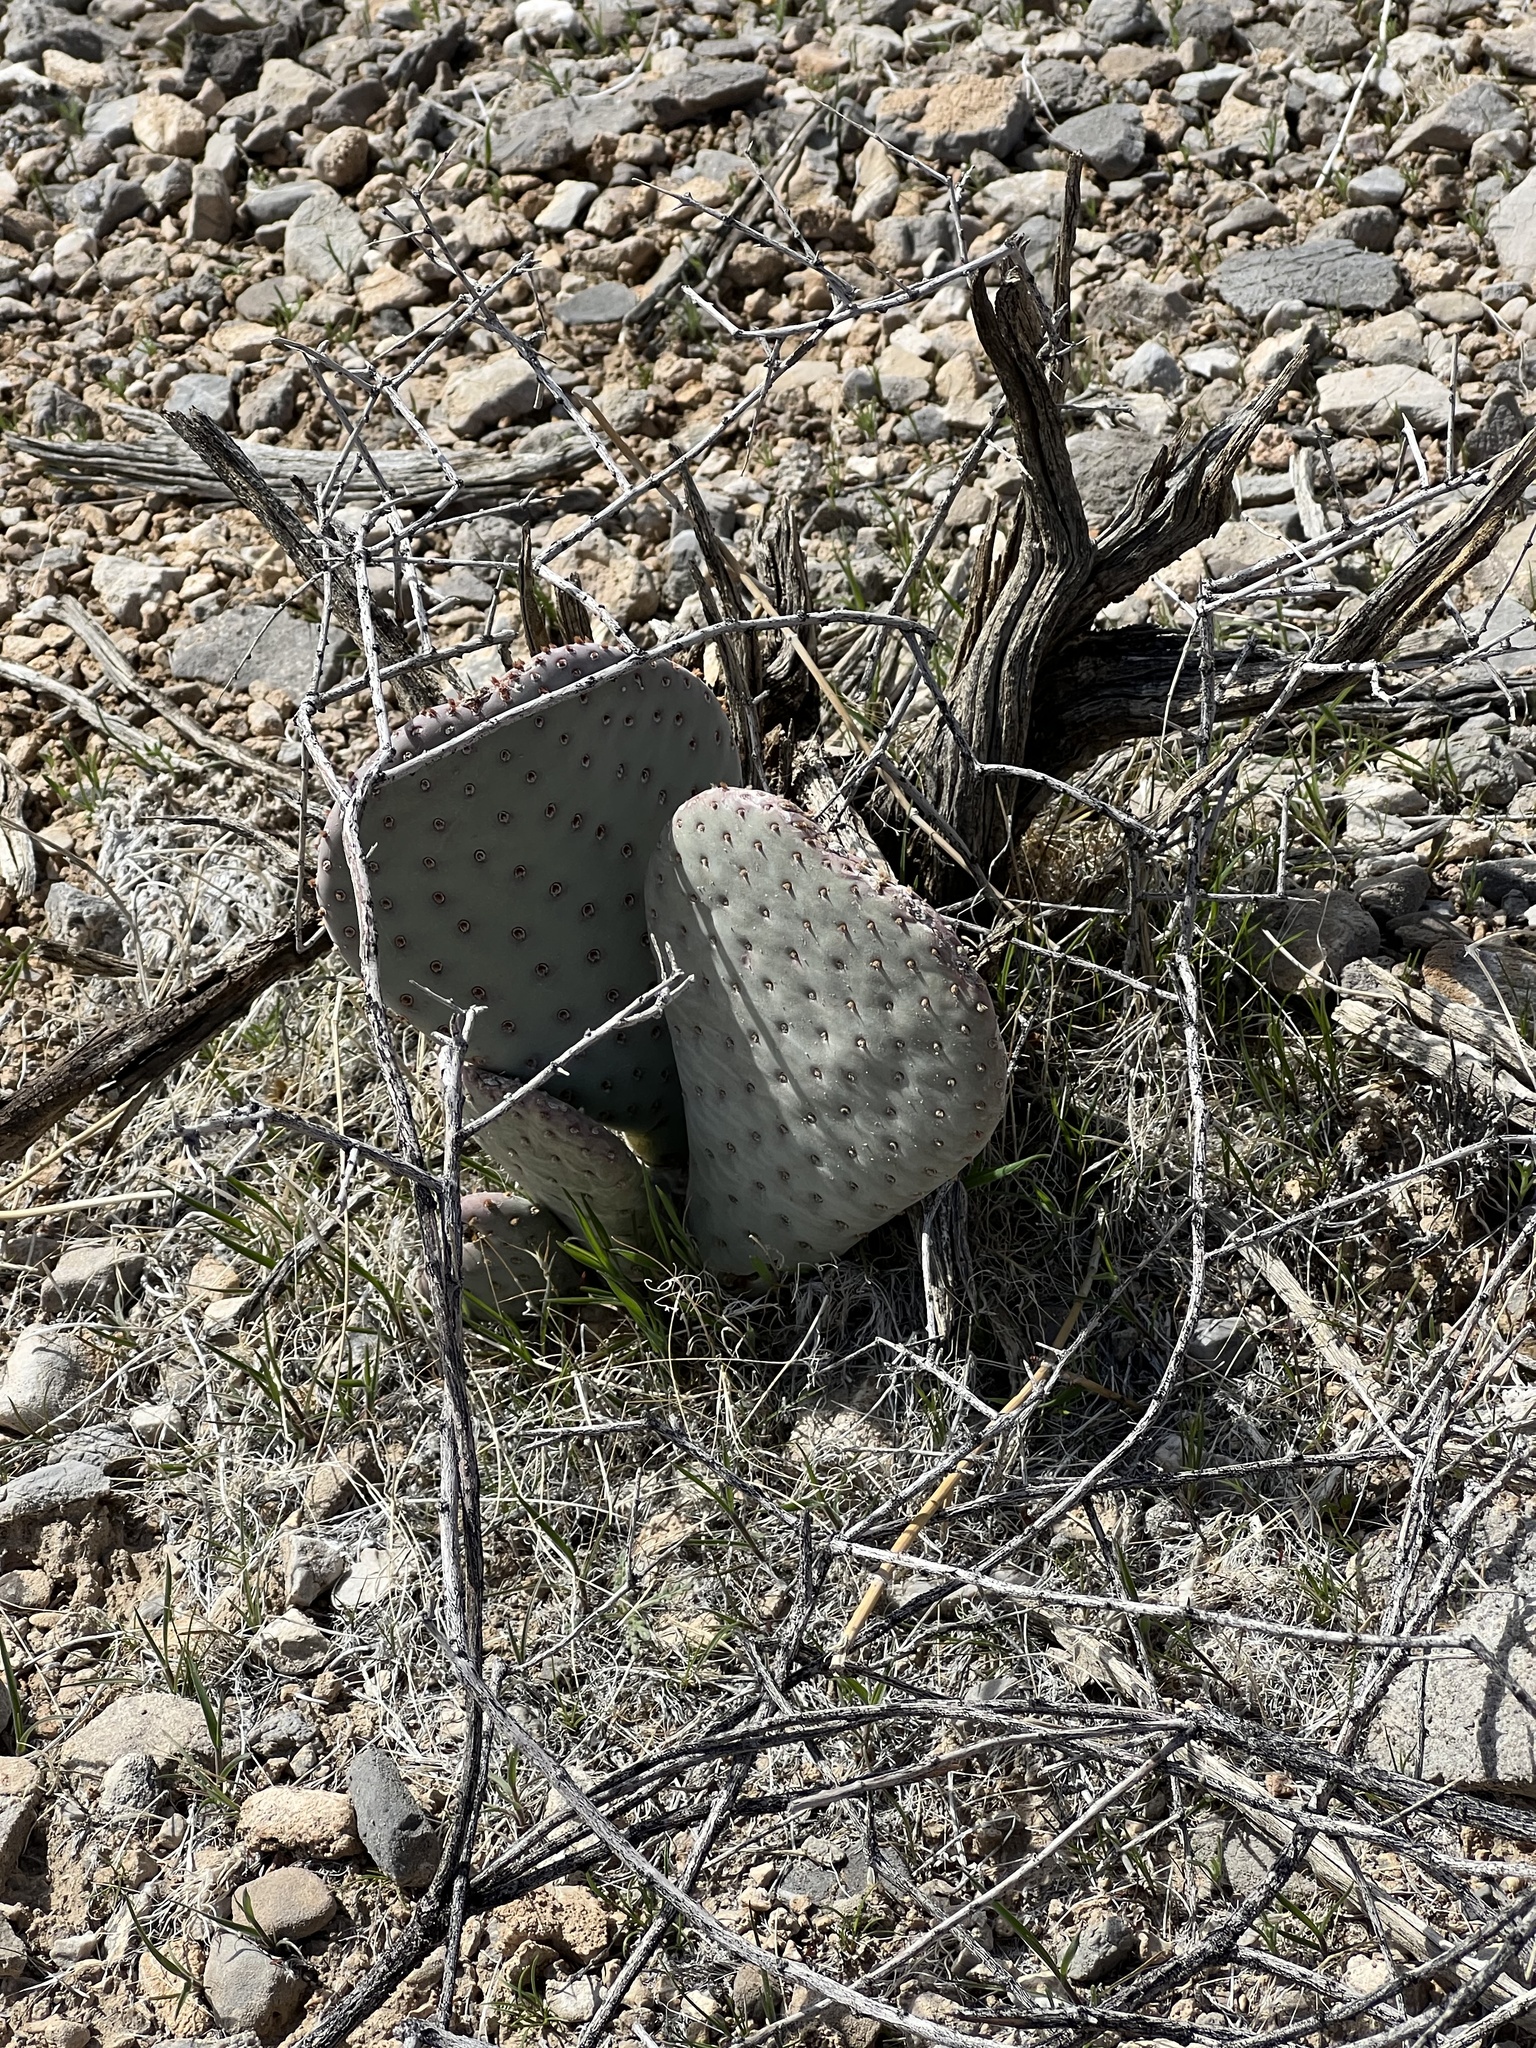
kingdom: Plantae
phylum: Tracheophyta
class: Magnoliopsida
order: Caryophyllales
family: Cactaceae
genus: Opuntia
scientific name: Opuntia basilaris
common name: Beavertail prickly-pear
